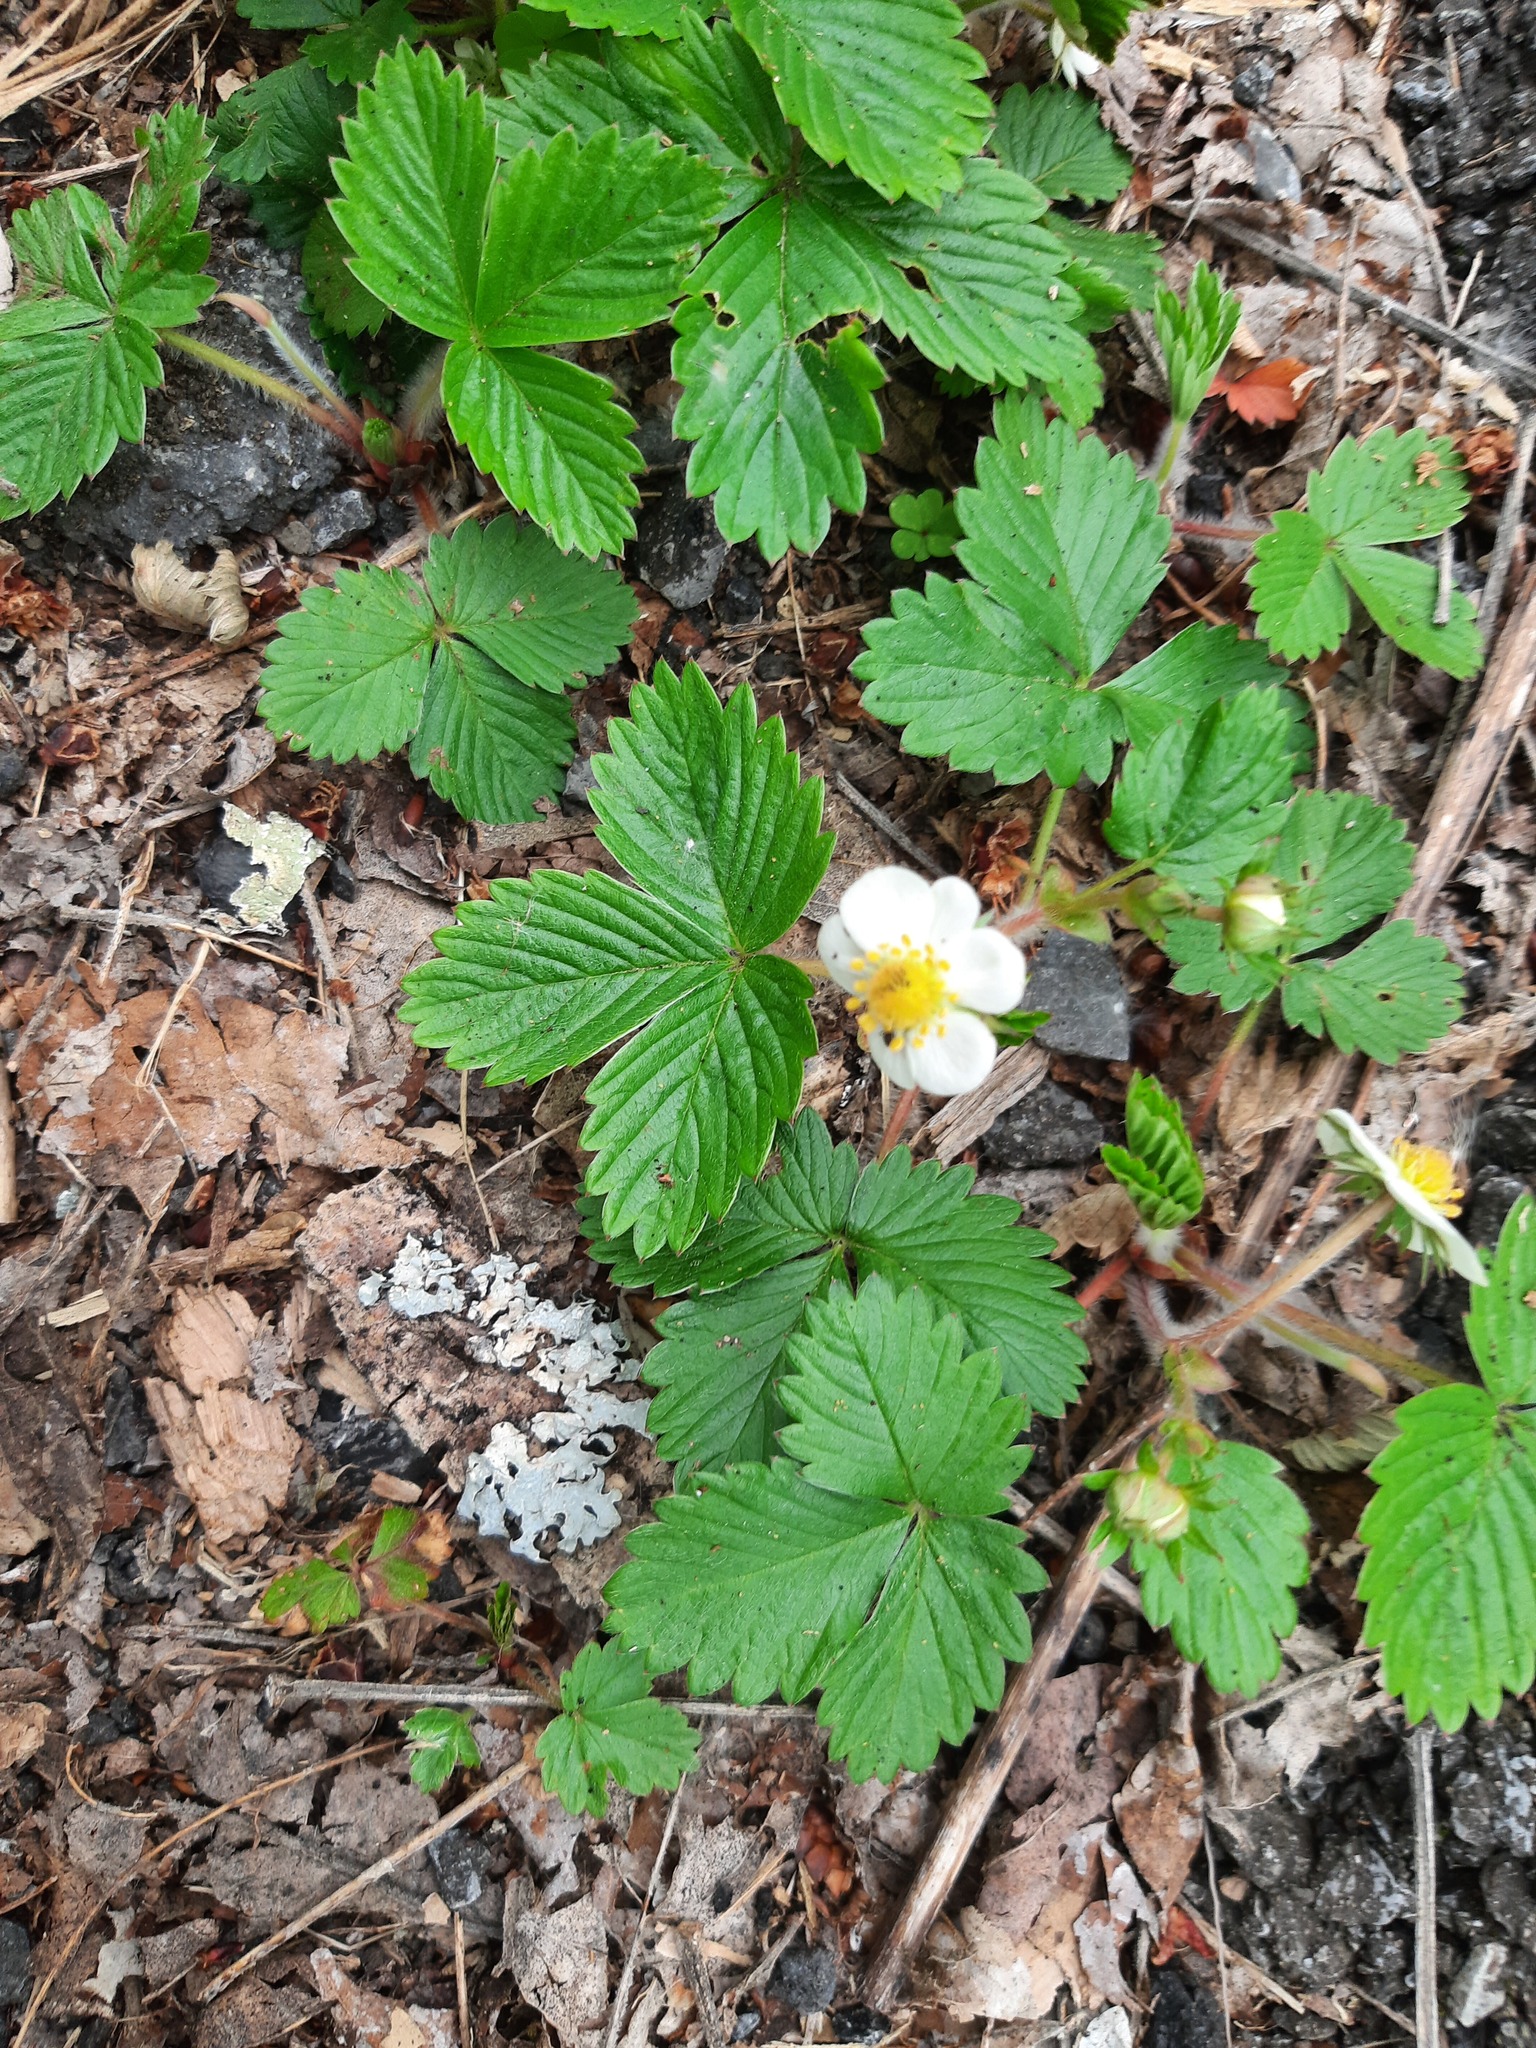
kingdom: Plantae
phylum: Tracheophyta
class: Magnoliopsida
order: Rosales
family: Rosaceae
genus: Fragaria
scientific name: Fragaria vesca
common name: Wild strawberry
